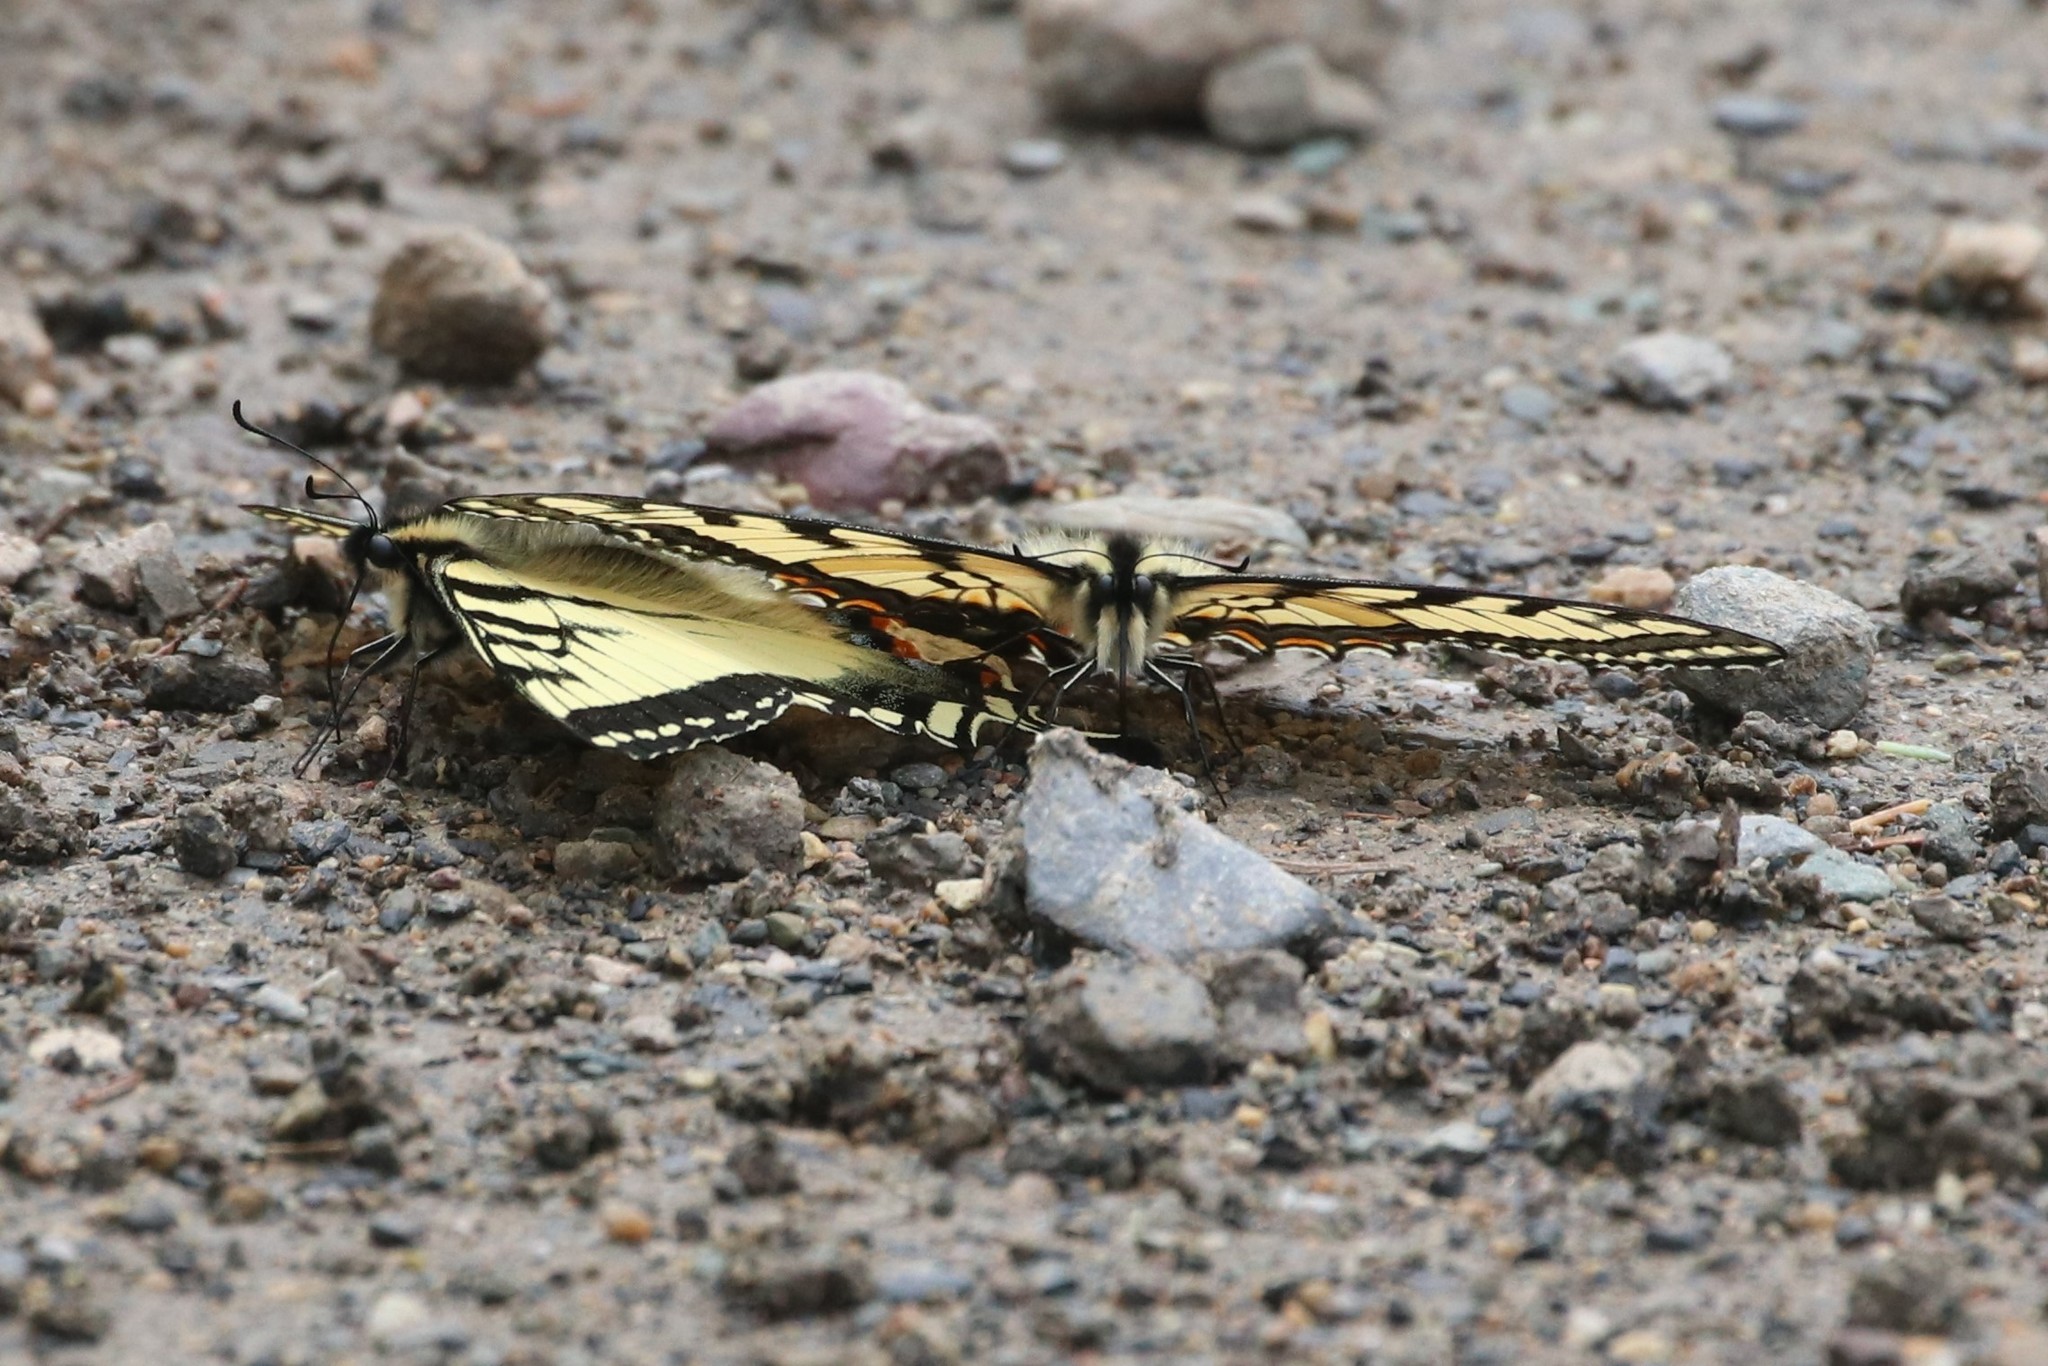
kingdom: Animalia
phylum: Arthropoda
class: Insecta
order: Lepidoptera
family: Papilionidae
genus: Papilio
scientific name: Papilio canadensis
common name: Canadian tiger swallowtail
